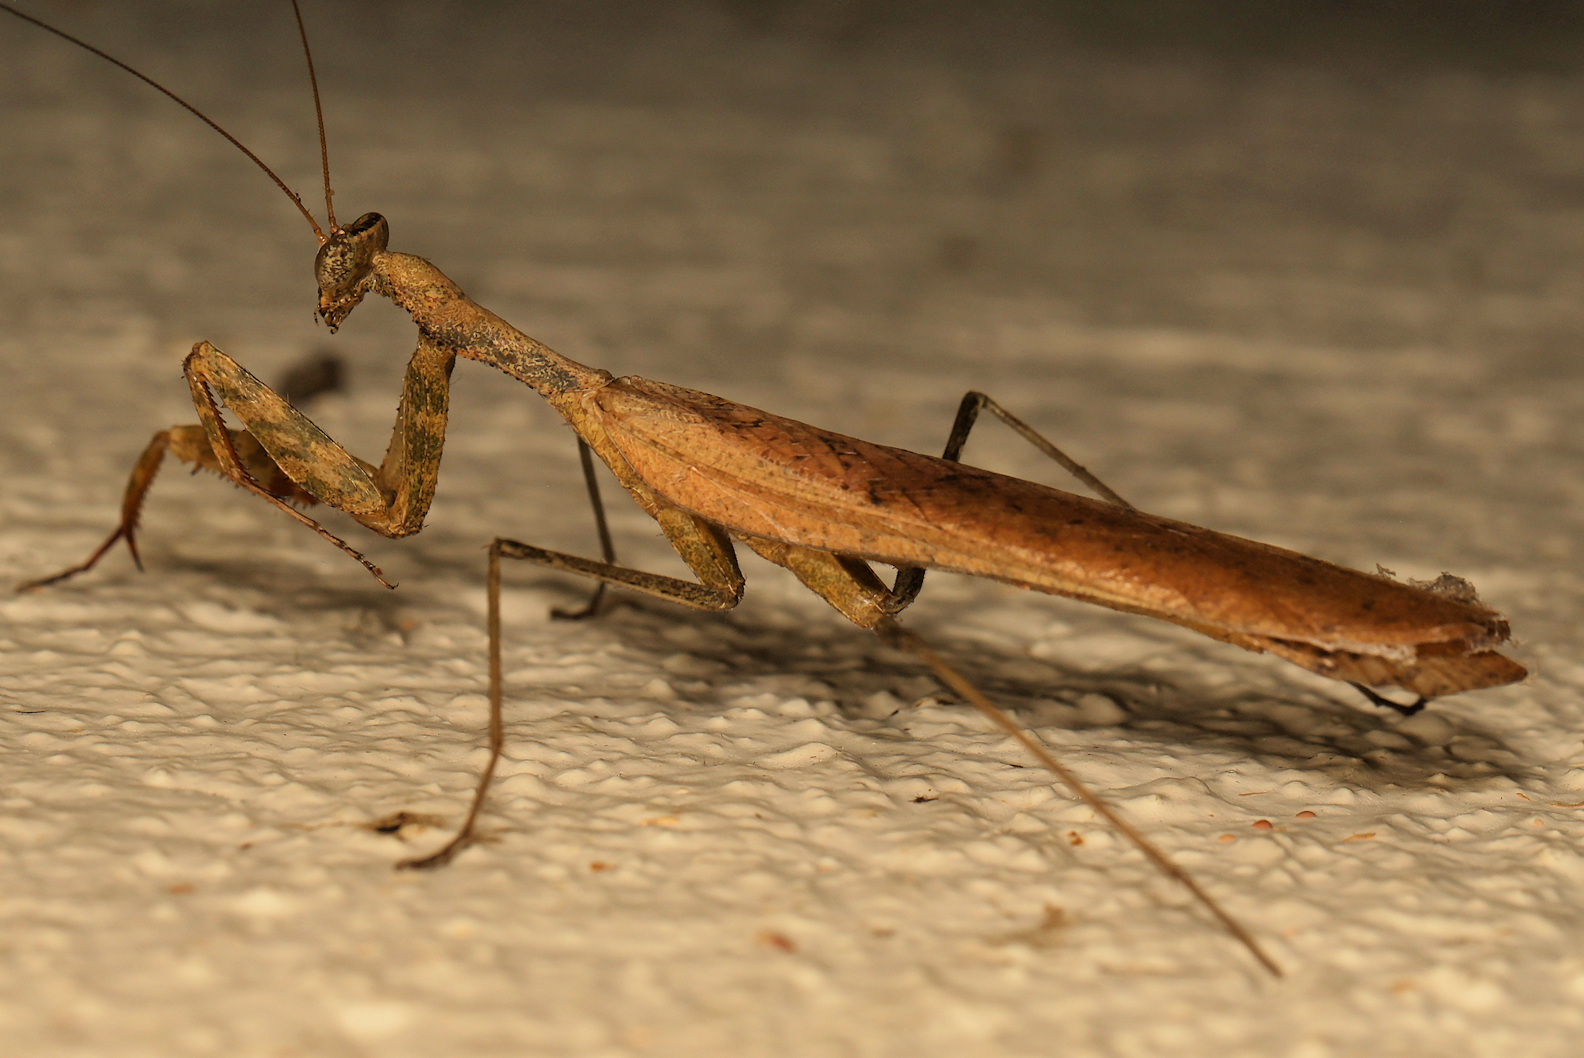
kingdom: Animalia
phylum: Arthropoda
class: Insecta
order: Mantodea
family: Chroicopteridae
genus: Dystacta
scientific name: Dystacta alticeps
